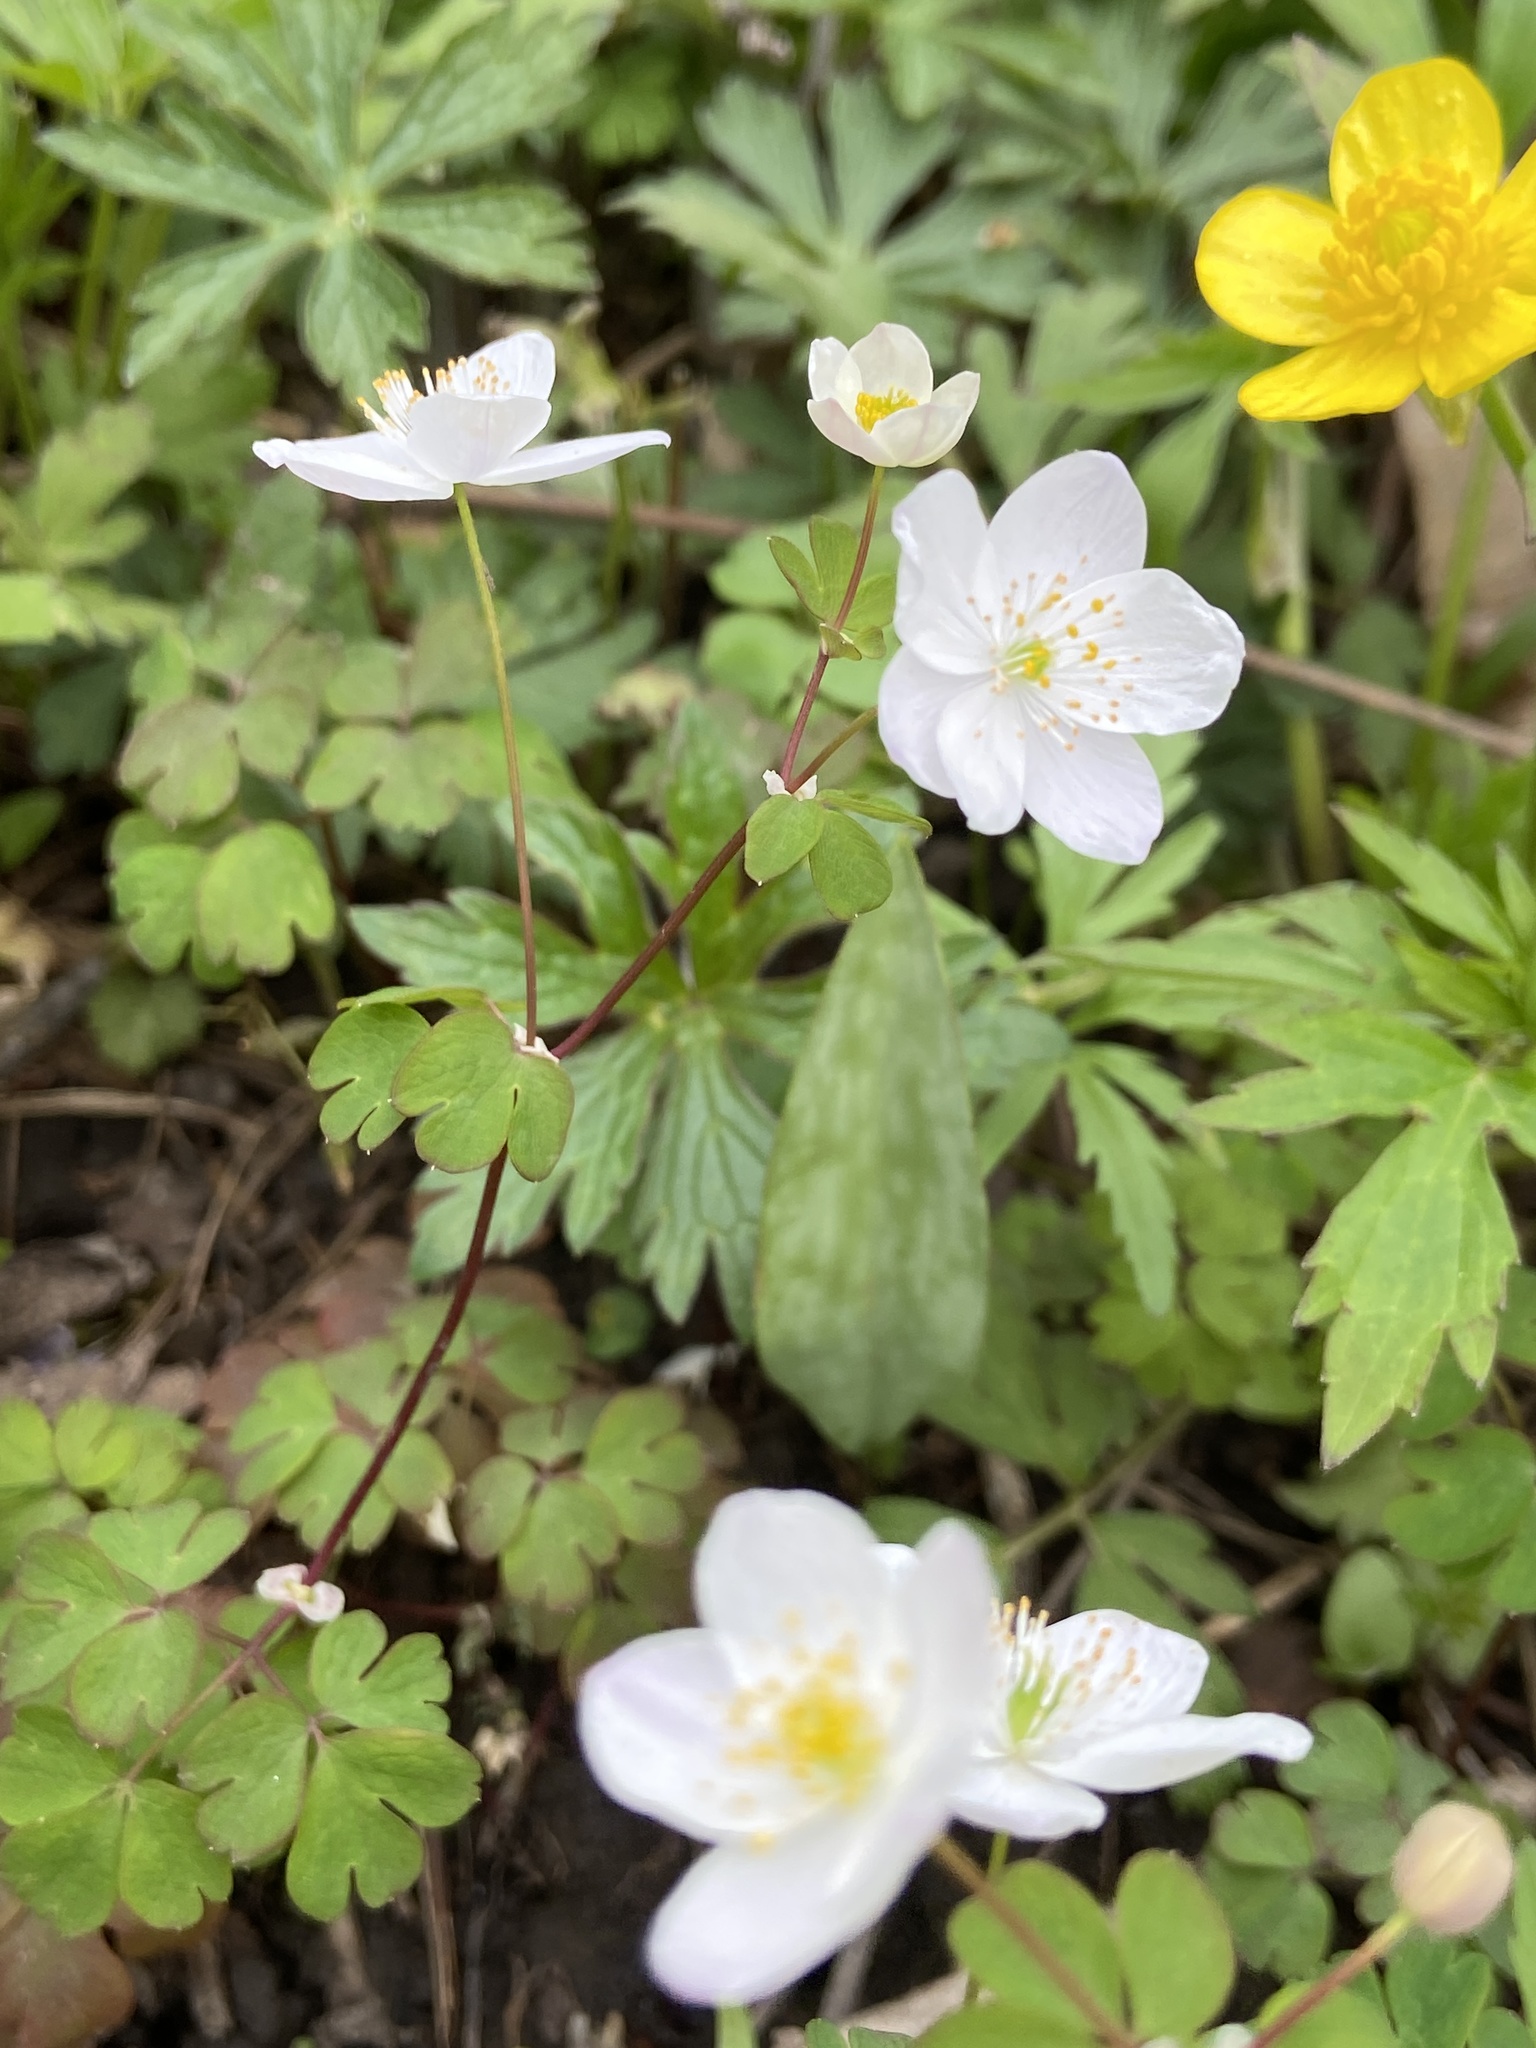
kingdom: Plantae
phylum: Tracheophyta
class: Magnoliopsida
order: Ranunculales
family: Ranunculaceae
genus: Enemion
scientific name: Enemion biternatum
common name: Eastern false rue-anemone
